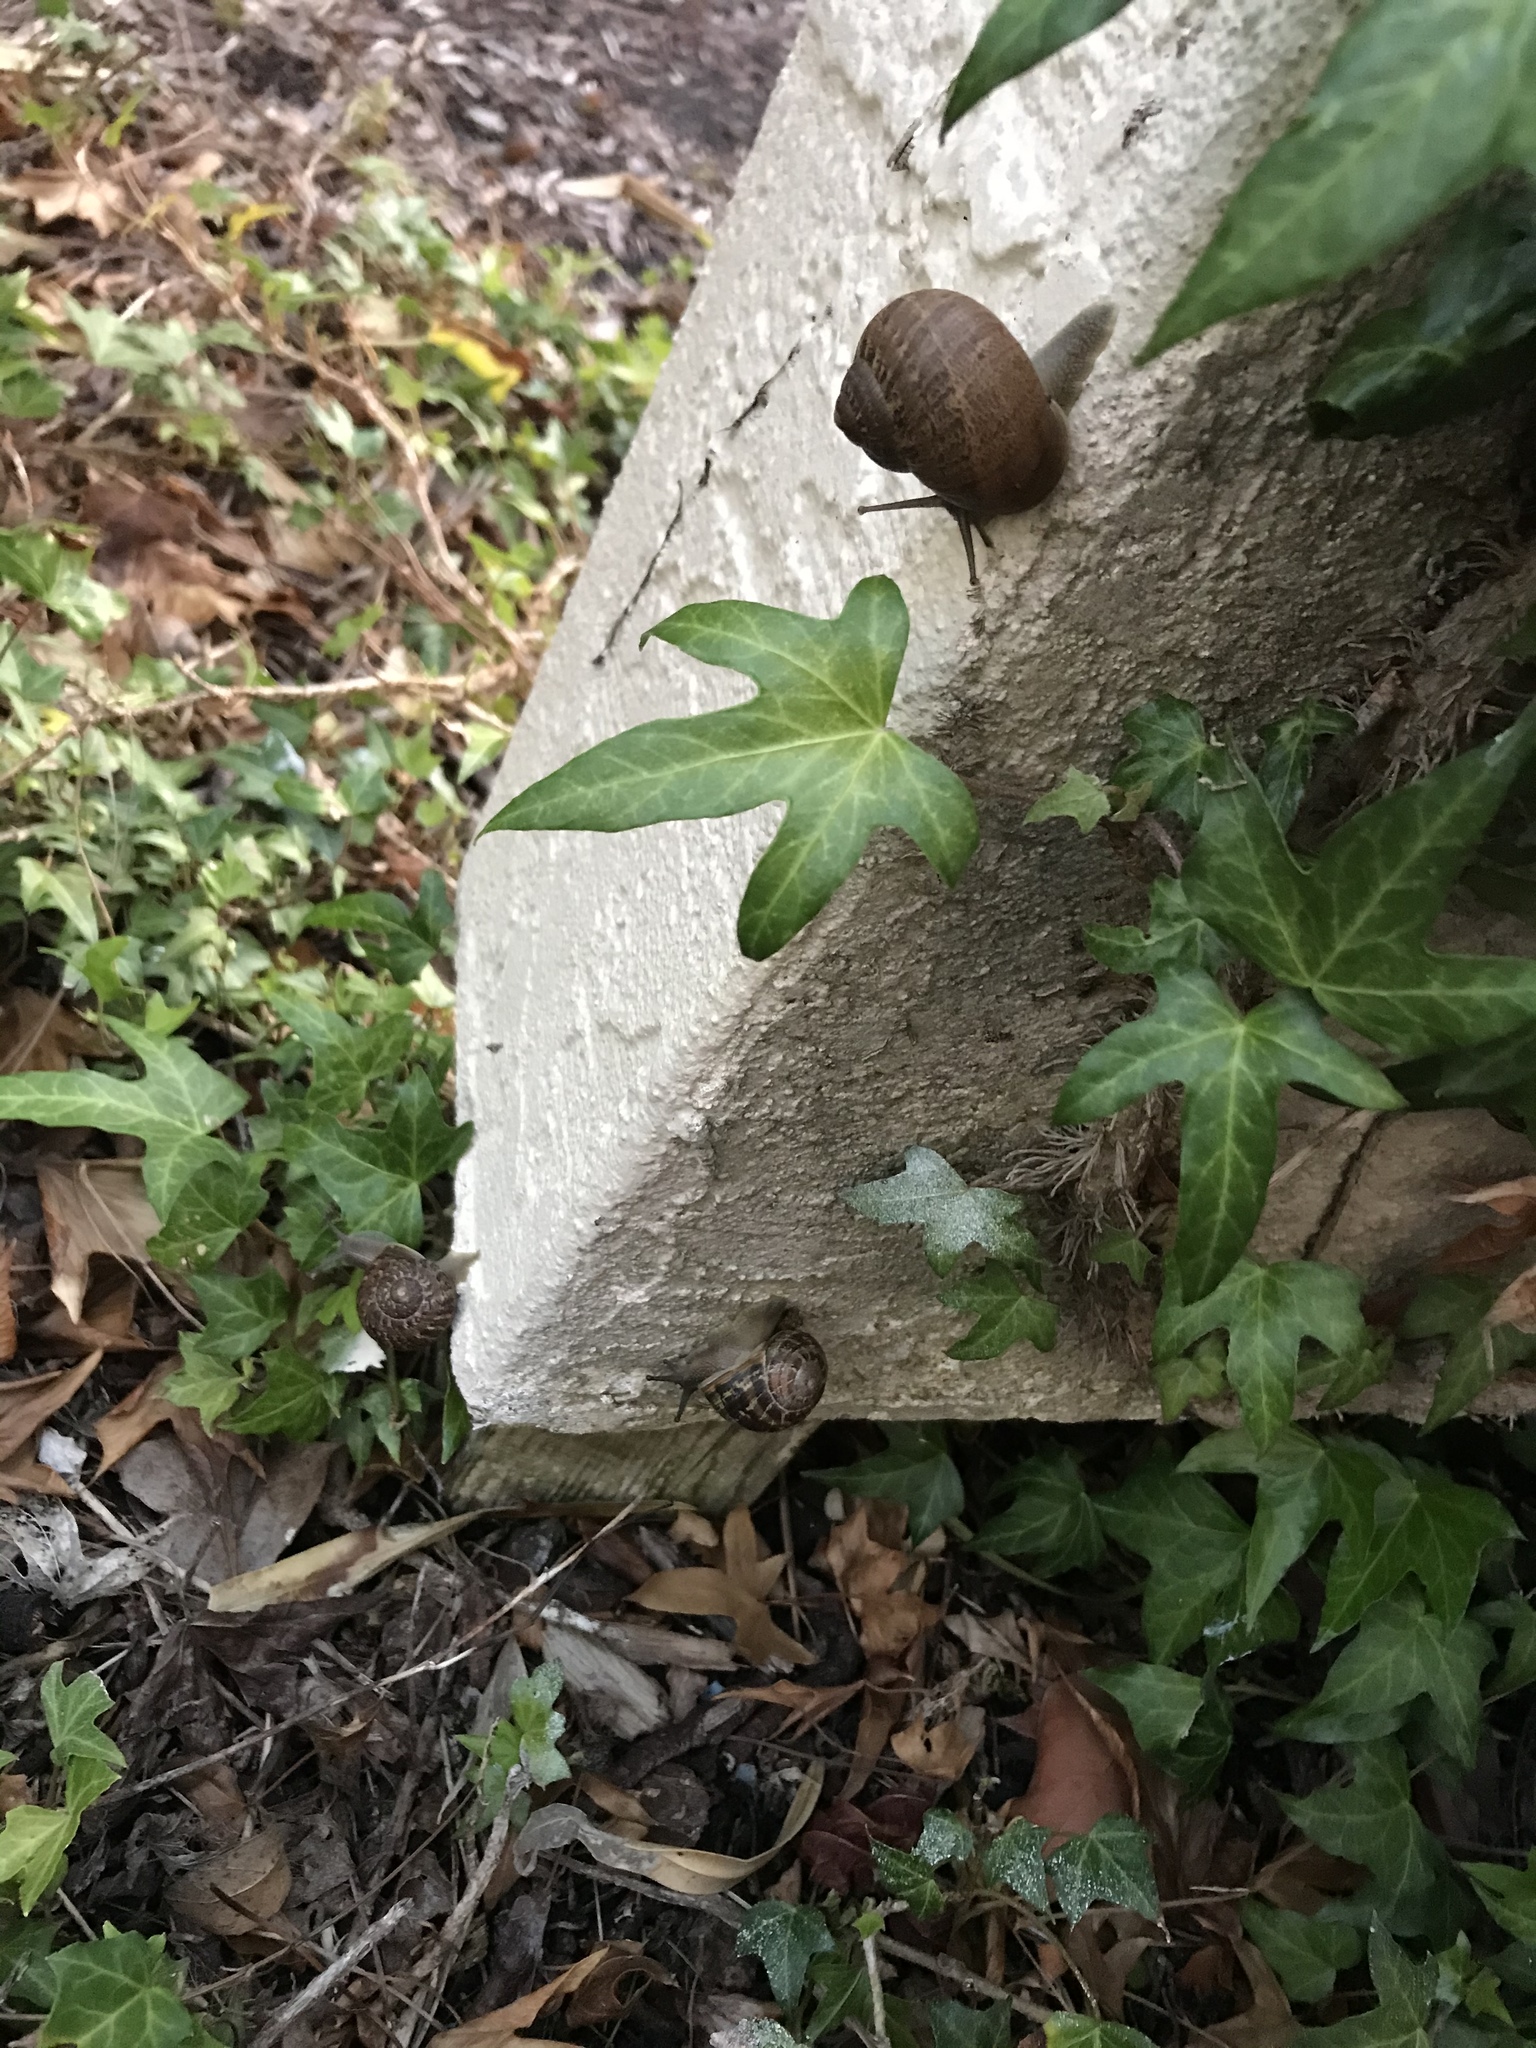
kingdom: Animalia
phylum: Mollusca
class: Gastropoda
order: Stylommatophora
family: Helicidae
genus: Cornu
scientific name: Cornu aspersum
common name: Brown garden snail
